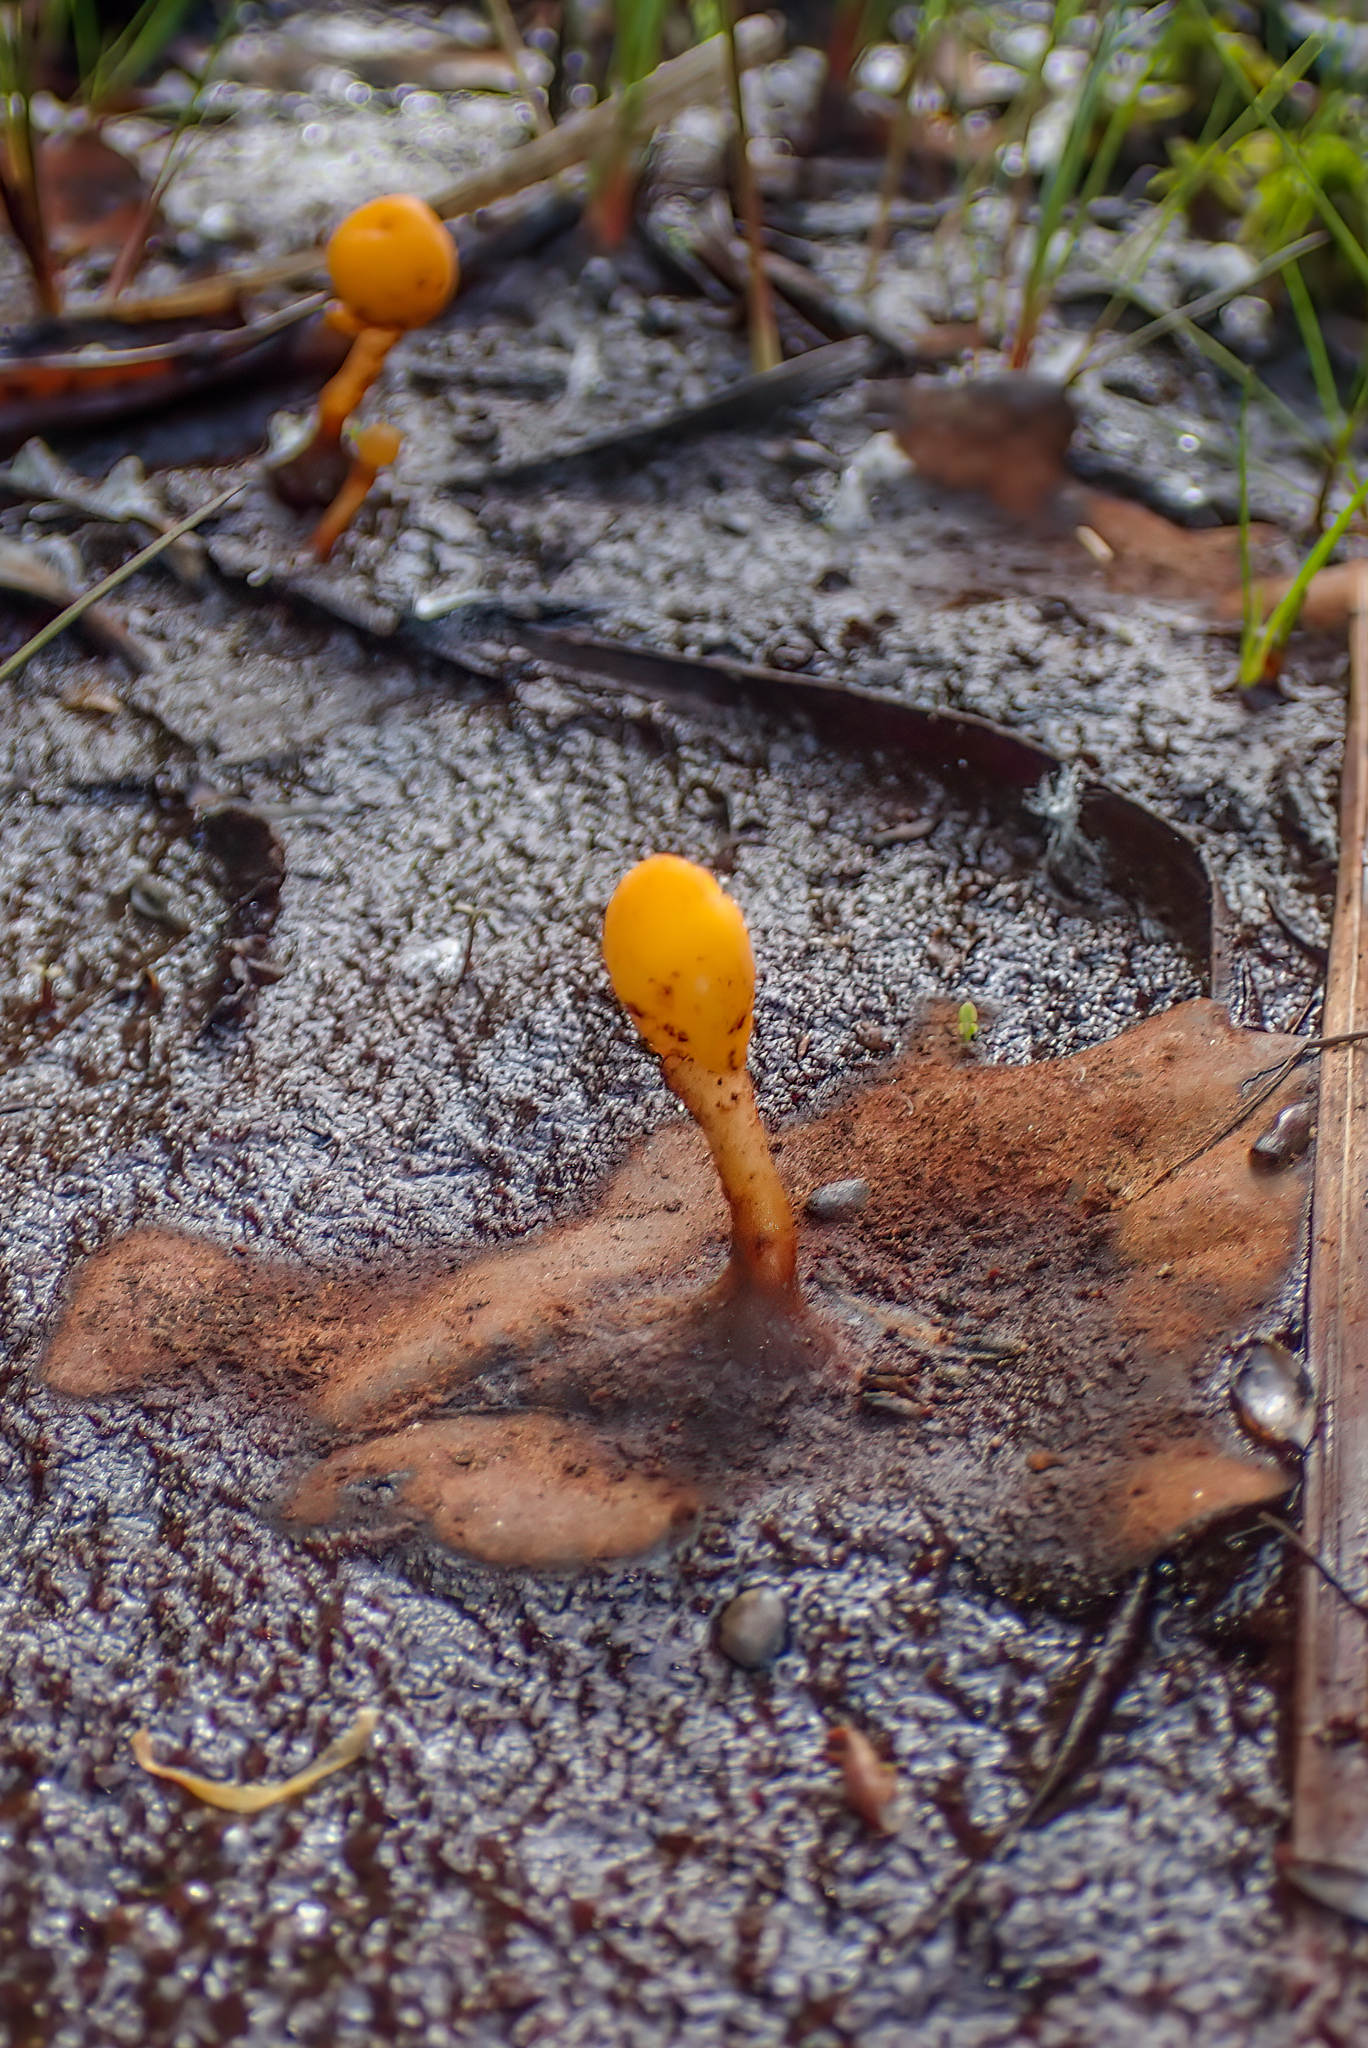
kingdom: Fungi
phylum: Ascomycota
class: Leotiomycetes
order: Helotiales
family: Cenangiaceae
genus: Mitrula
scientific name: Mitrula paludosa
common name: Bog beacon
